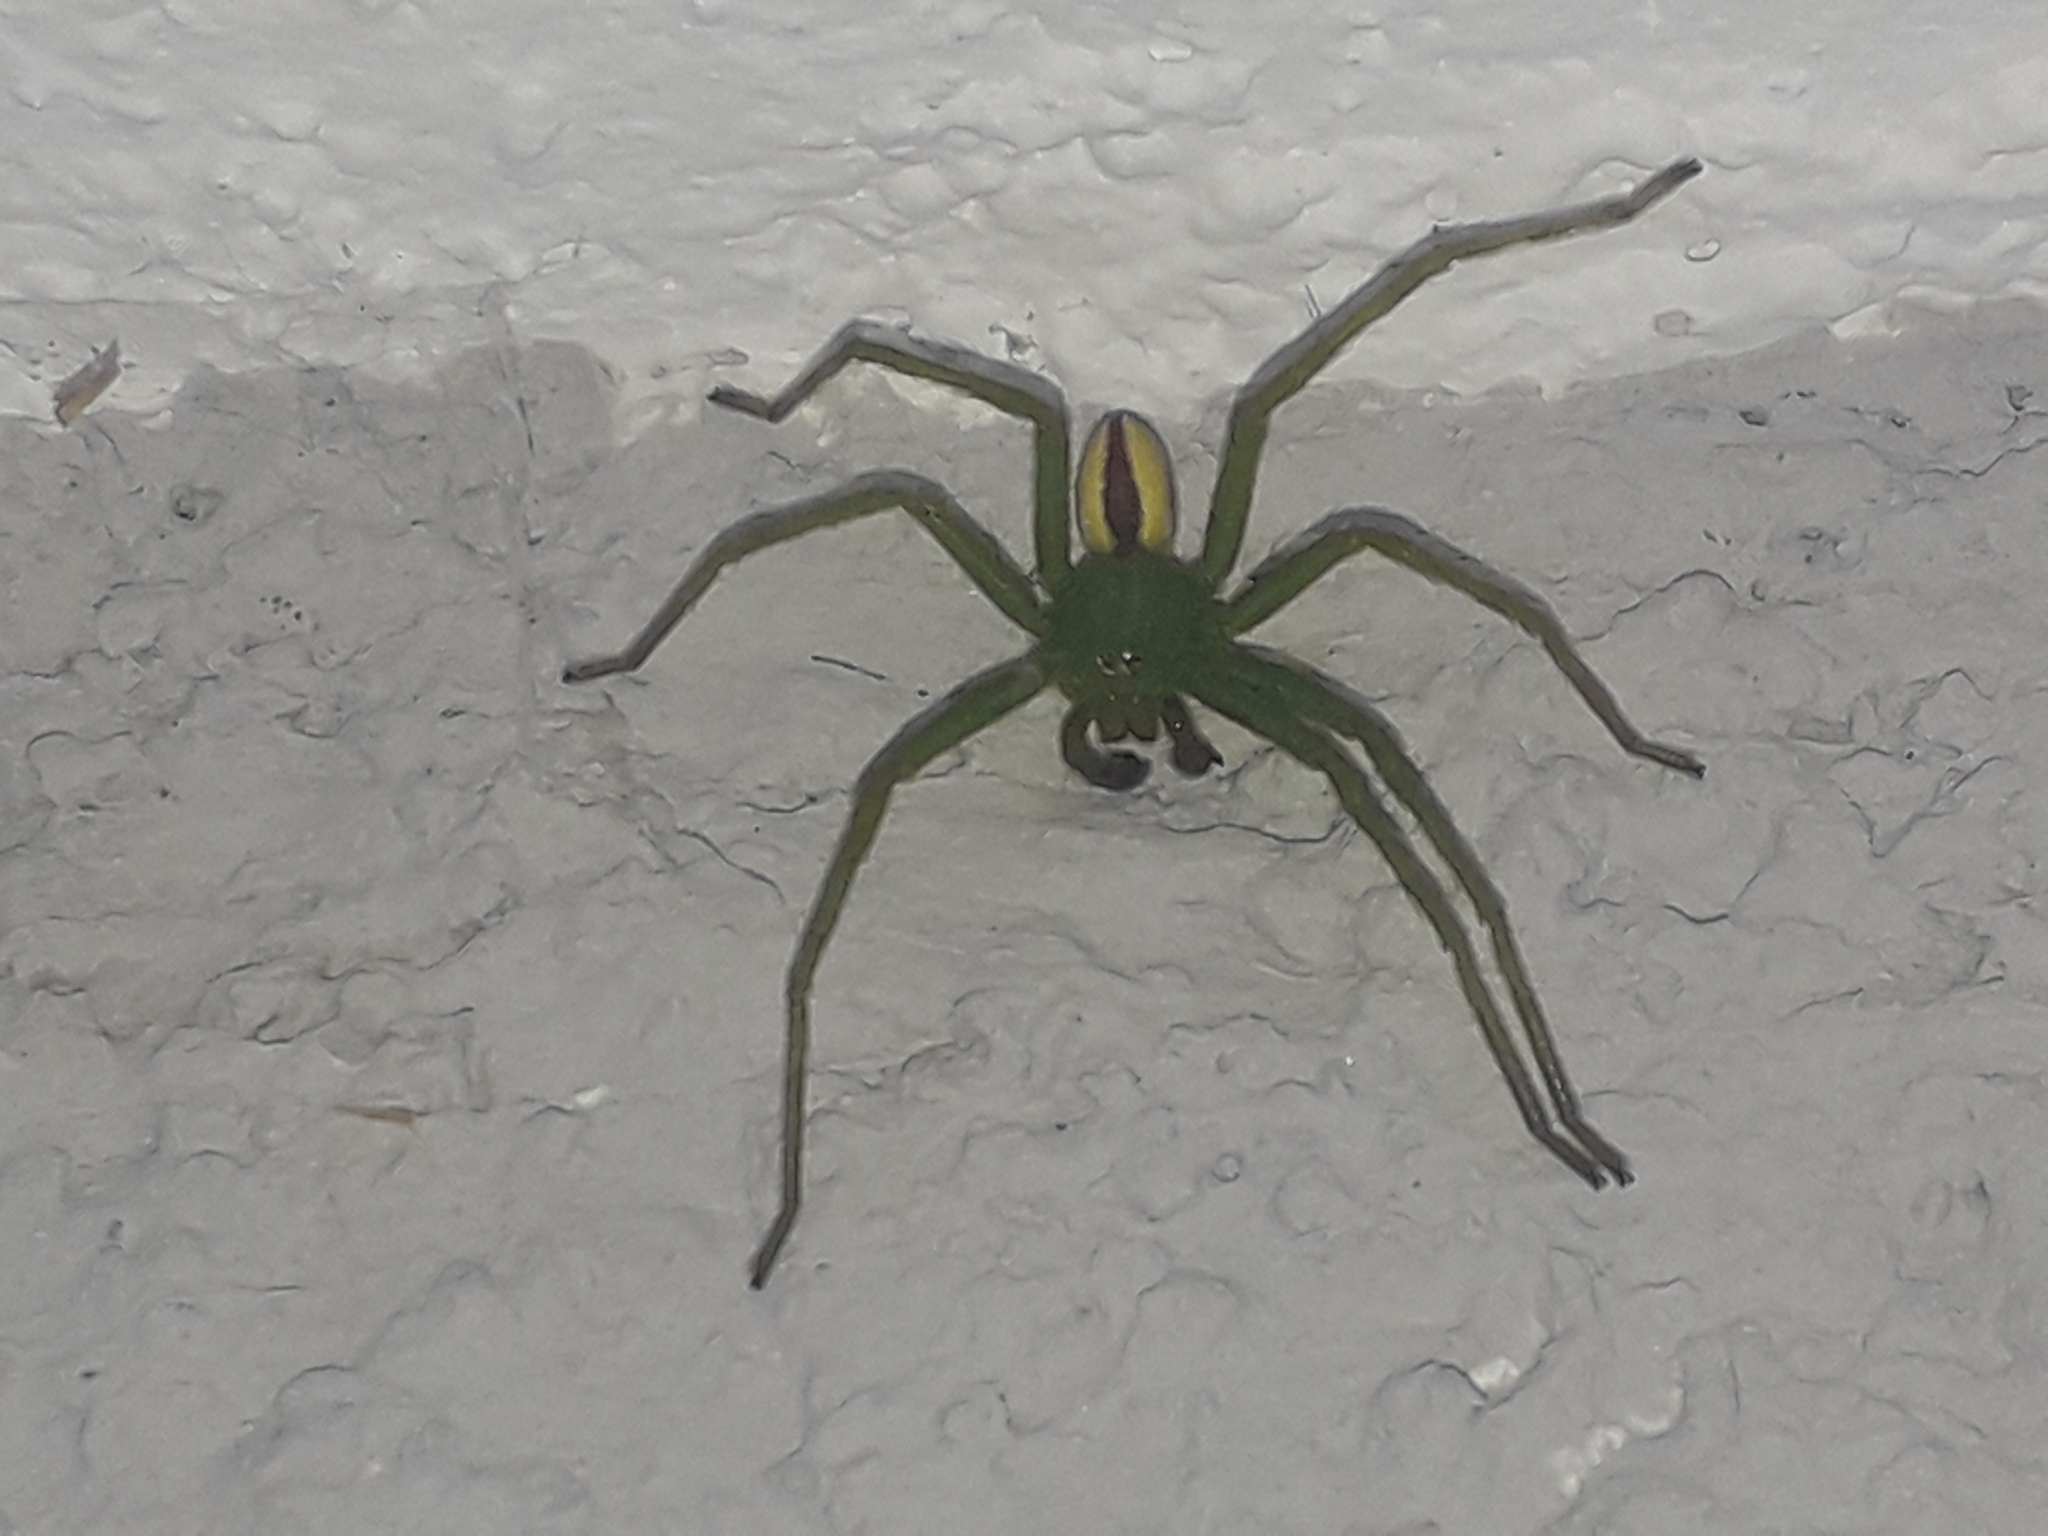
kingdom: Animalia
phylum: Arthropoda
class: Arachnida
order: Araneae
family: Sparassidae
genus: Micrommata
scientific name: Micrommata virescens
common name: Green spider
